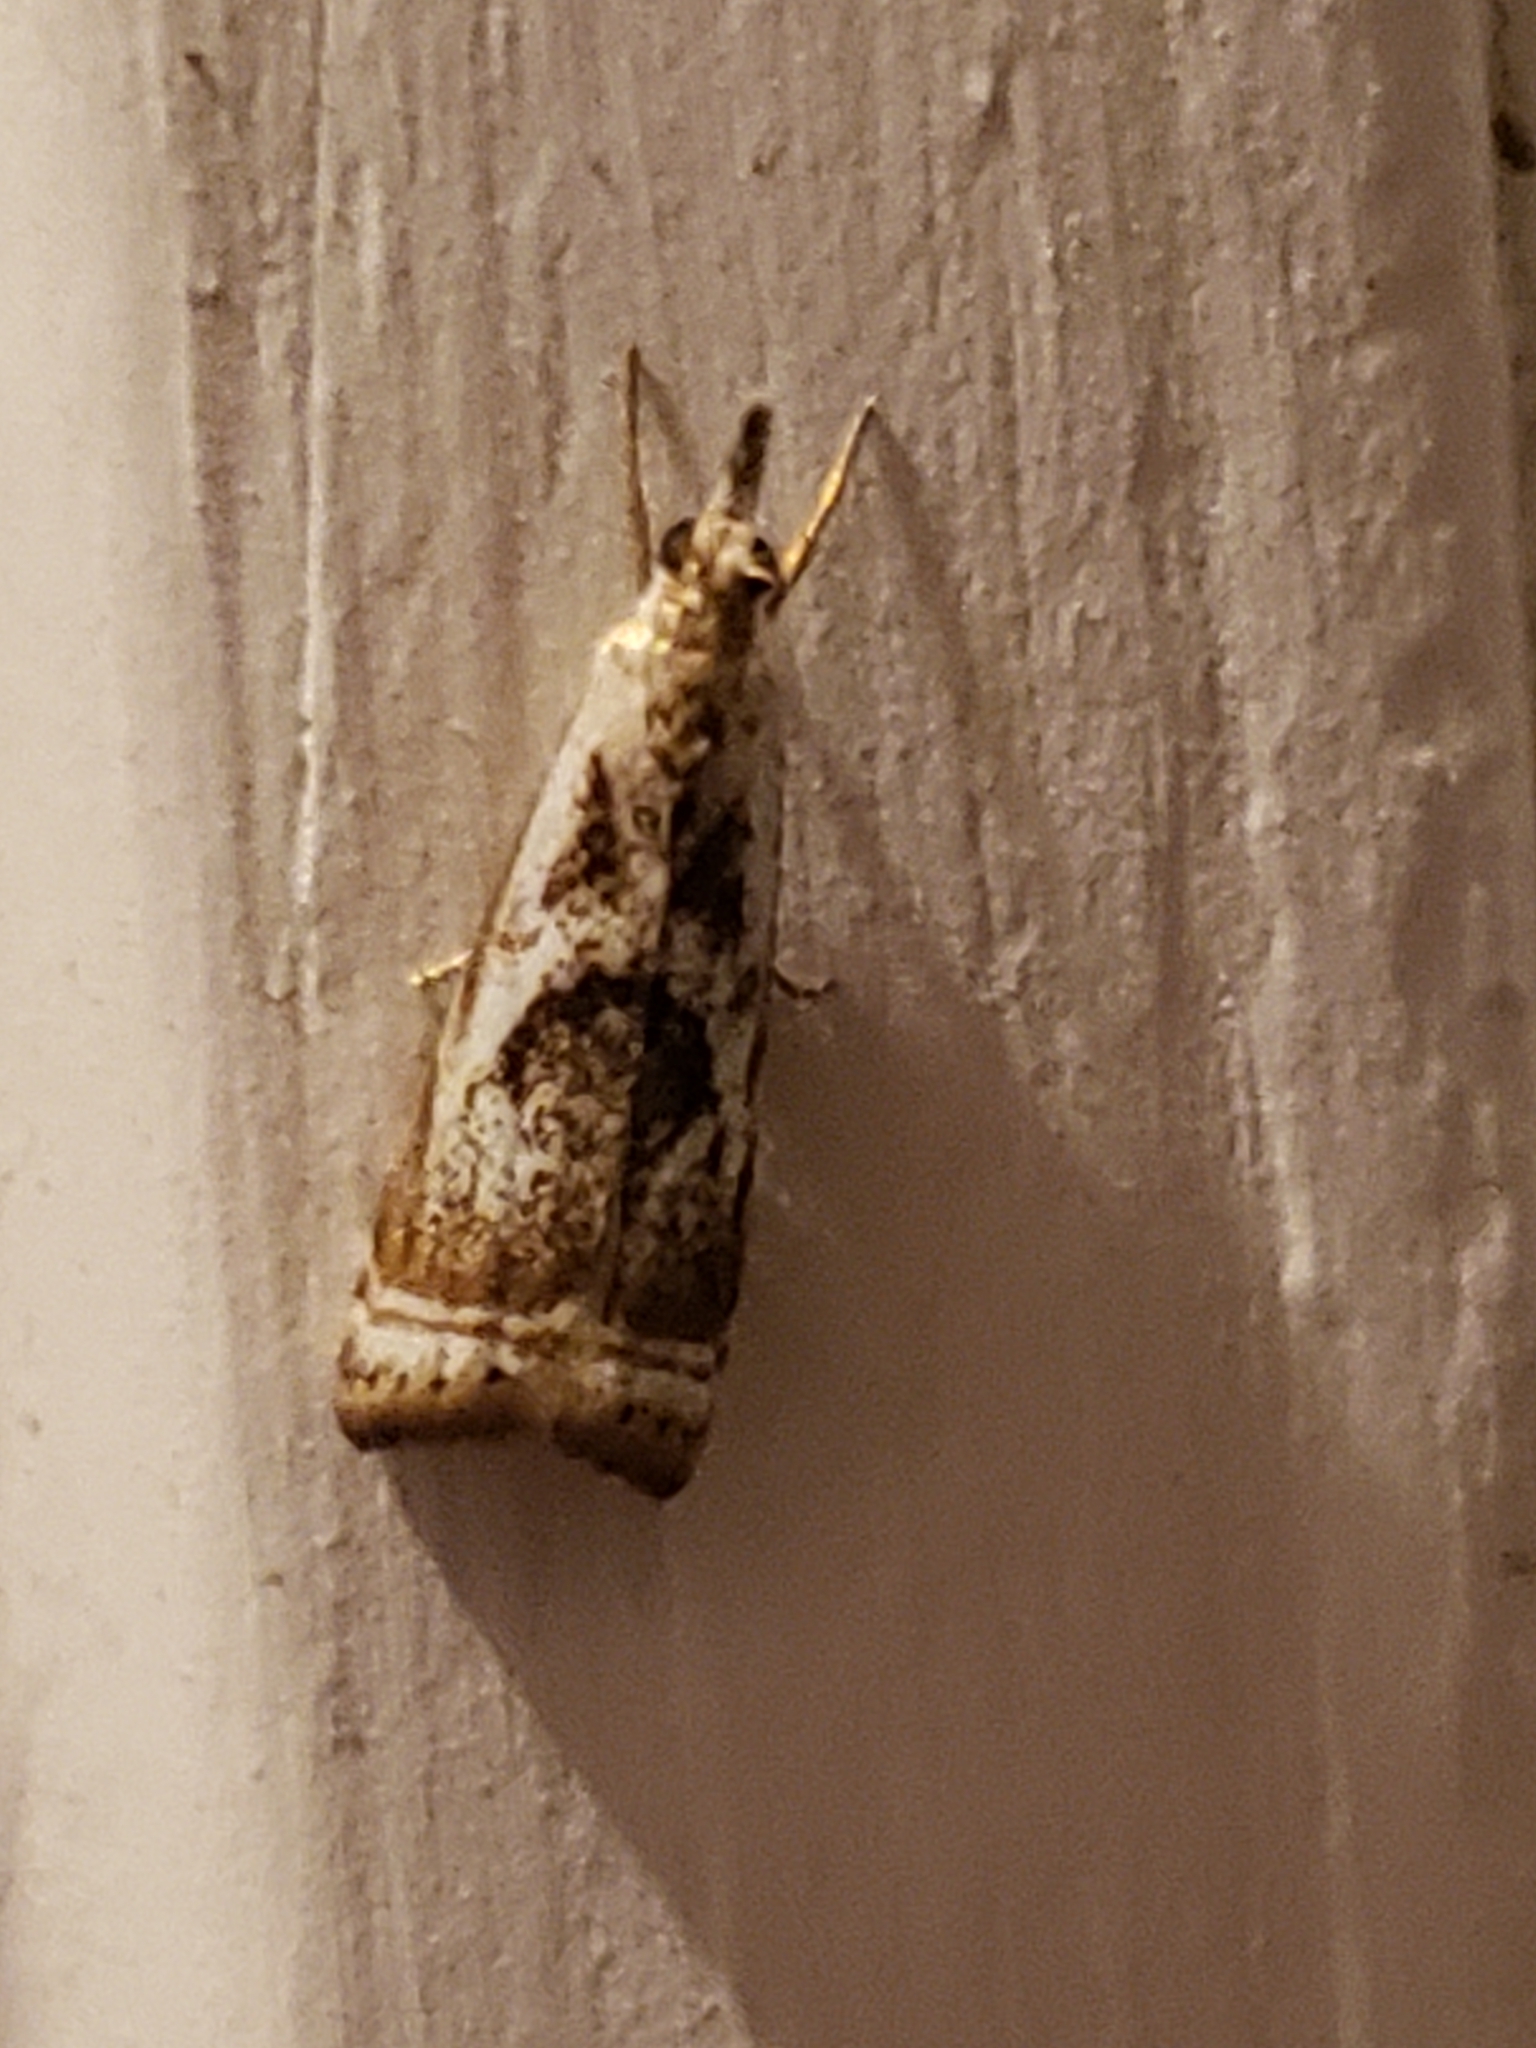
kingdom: Animalia
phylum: Arthropoda
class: Insecta
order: Lepidoptera
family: Crambidae
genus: Microcrambus
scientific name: Microcrambus elegans
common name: Elegant grass-veneer
